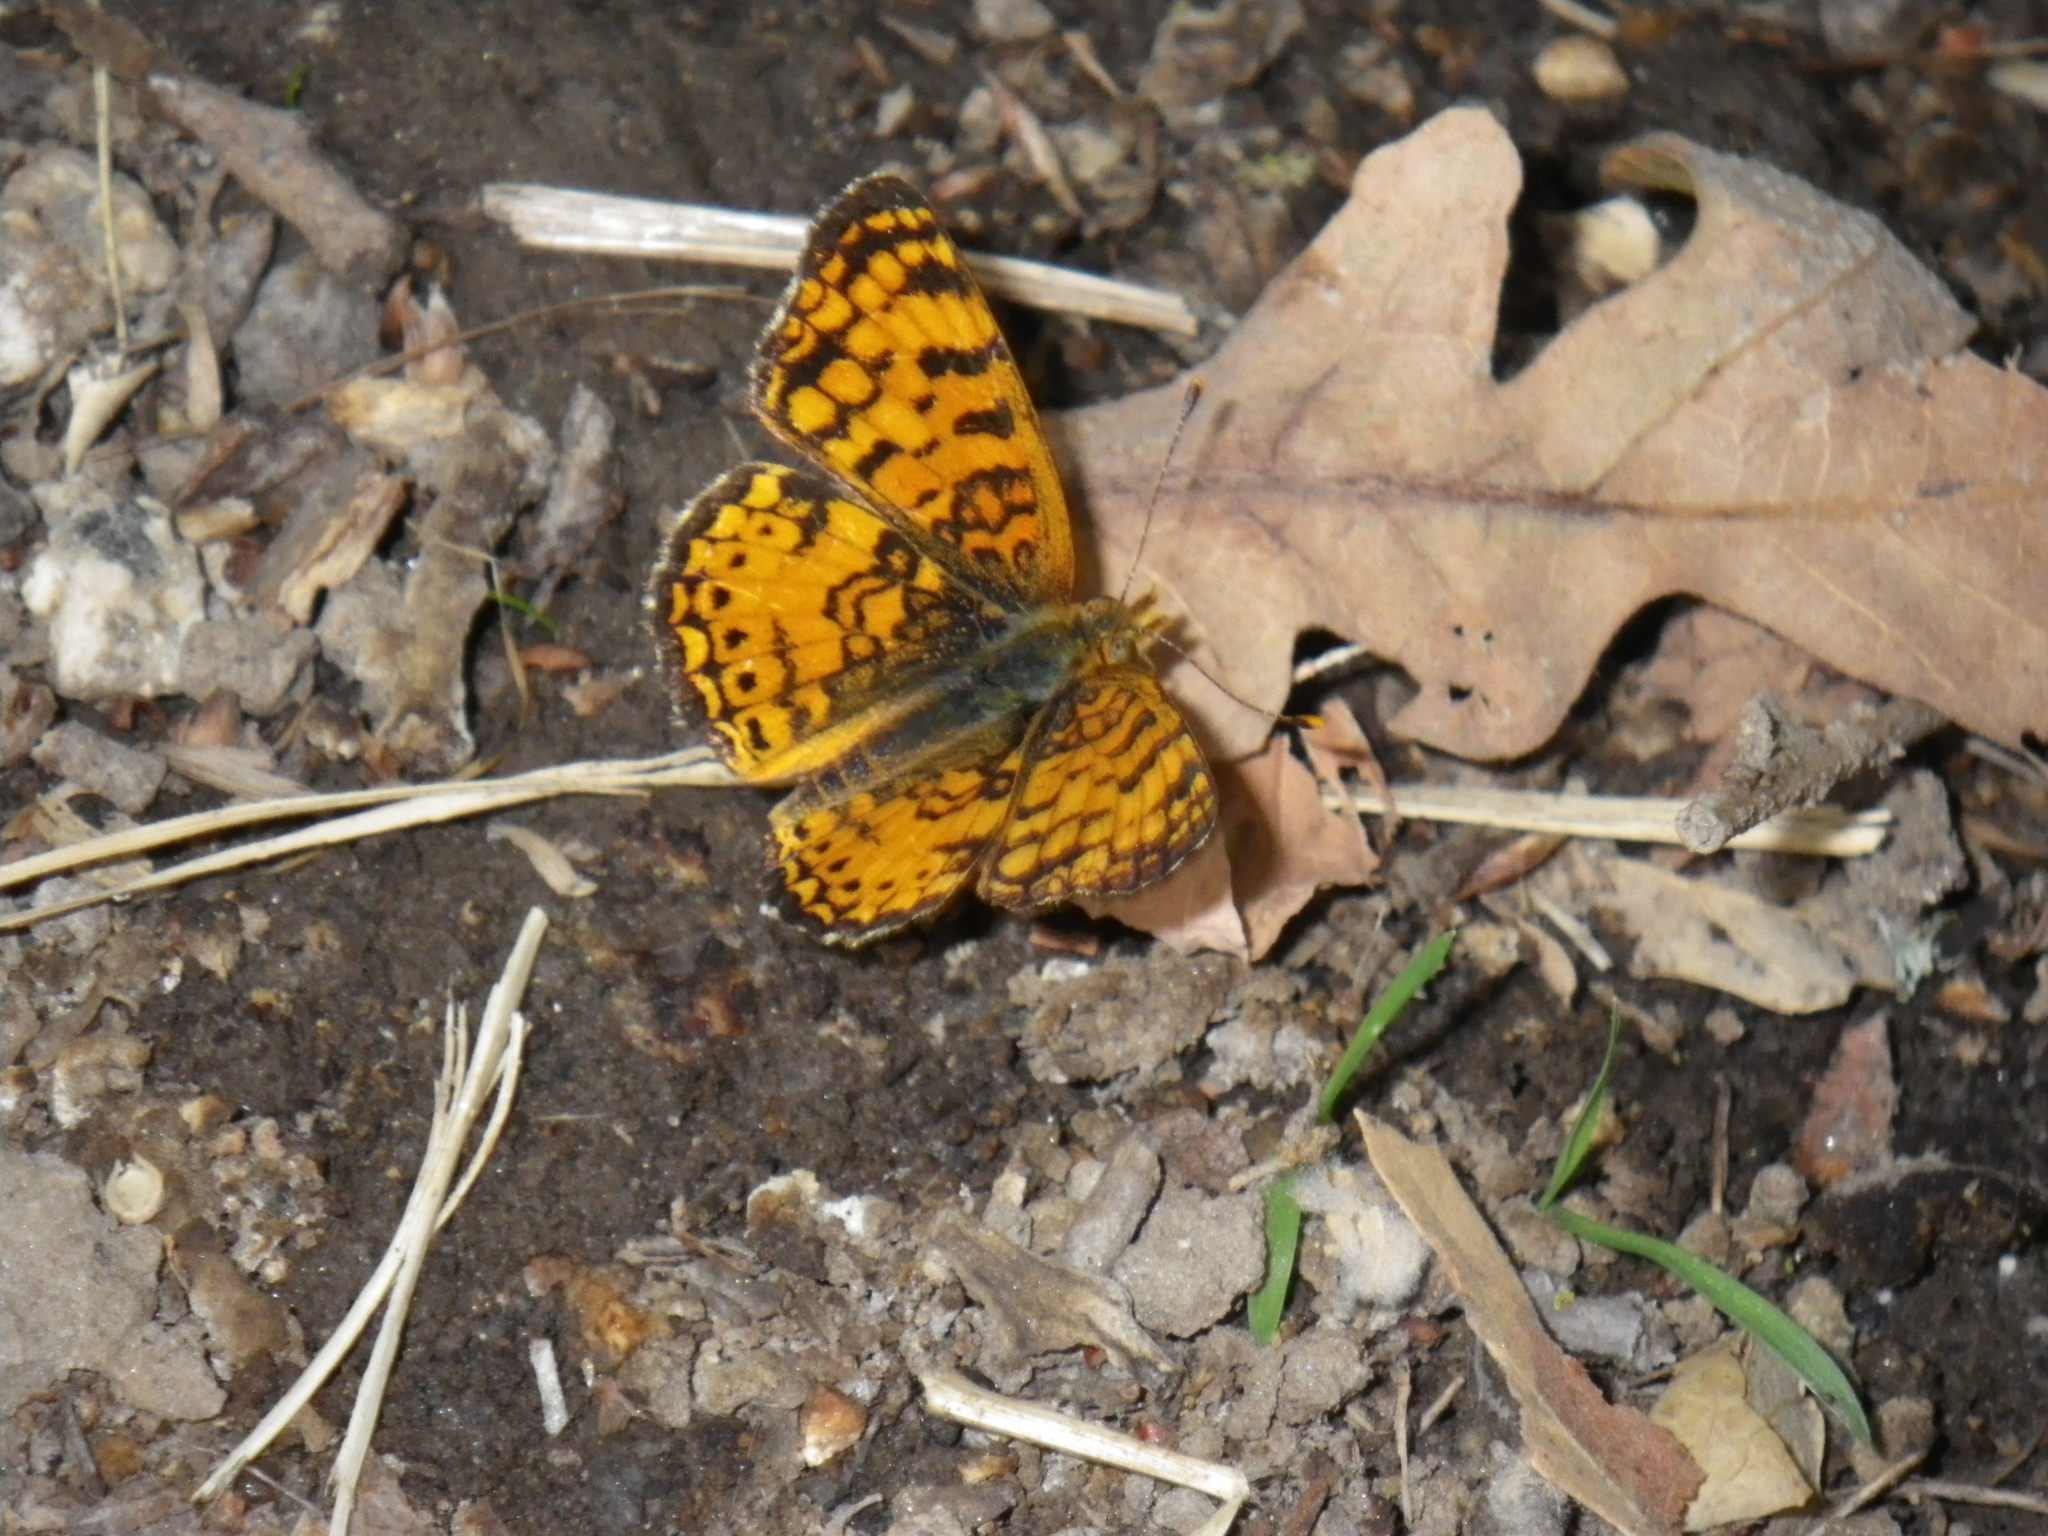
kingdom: Animalia
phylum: Arthropoda
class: Insecta
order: Lepidoptera
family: Nymphalidae
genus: Eresia
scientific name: Eresia aveyrona
